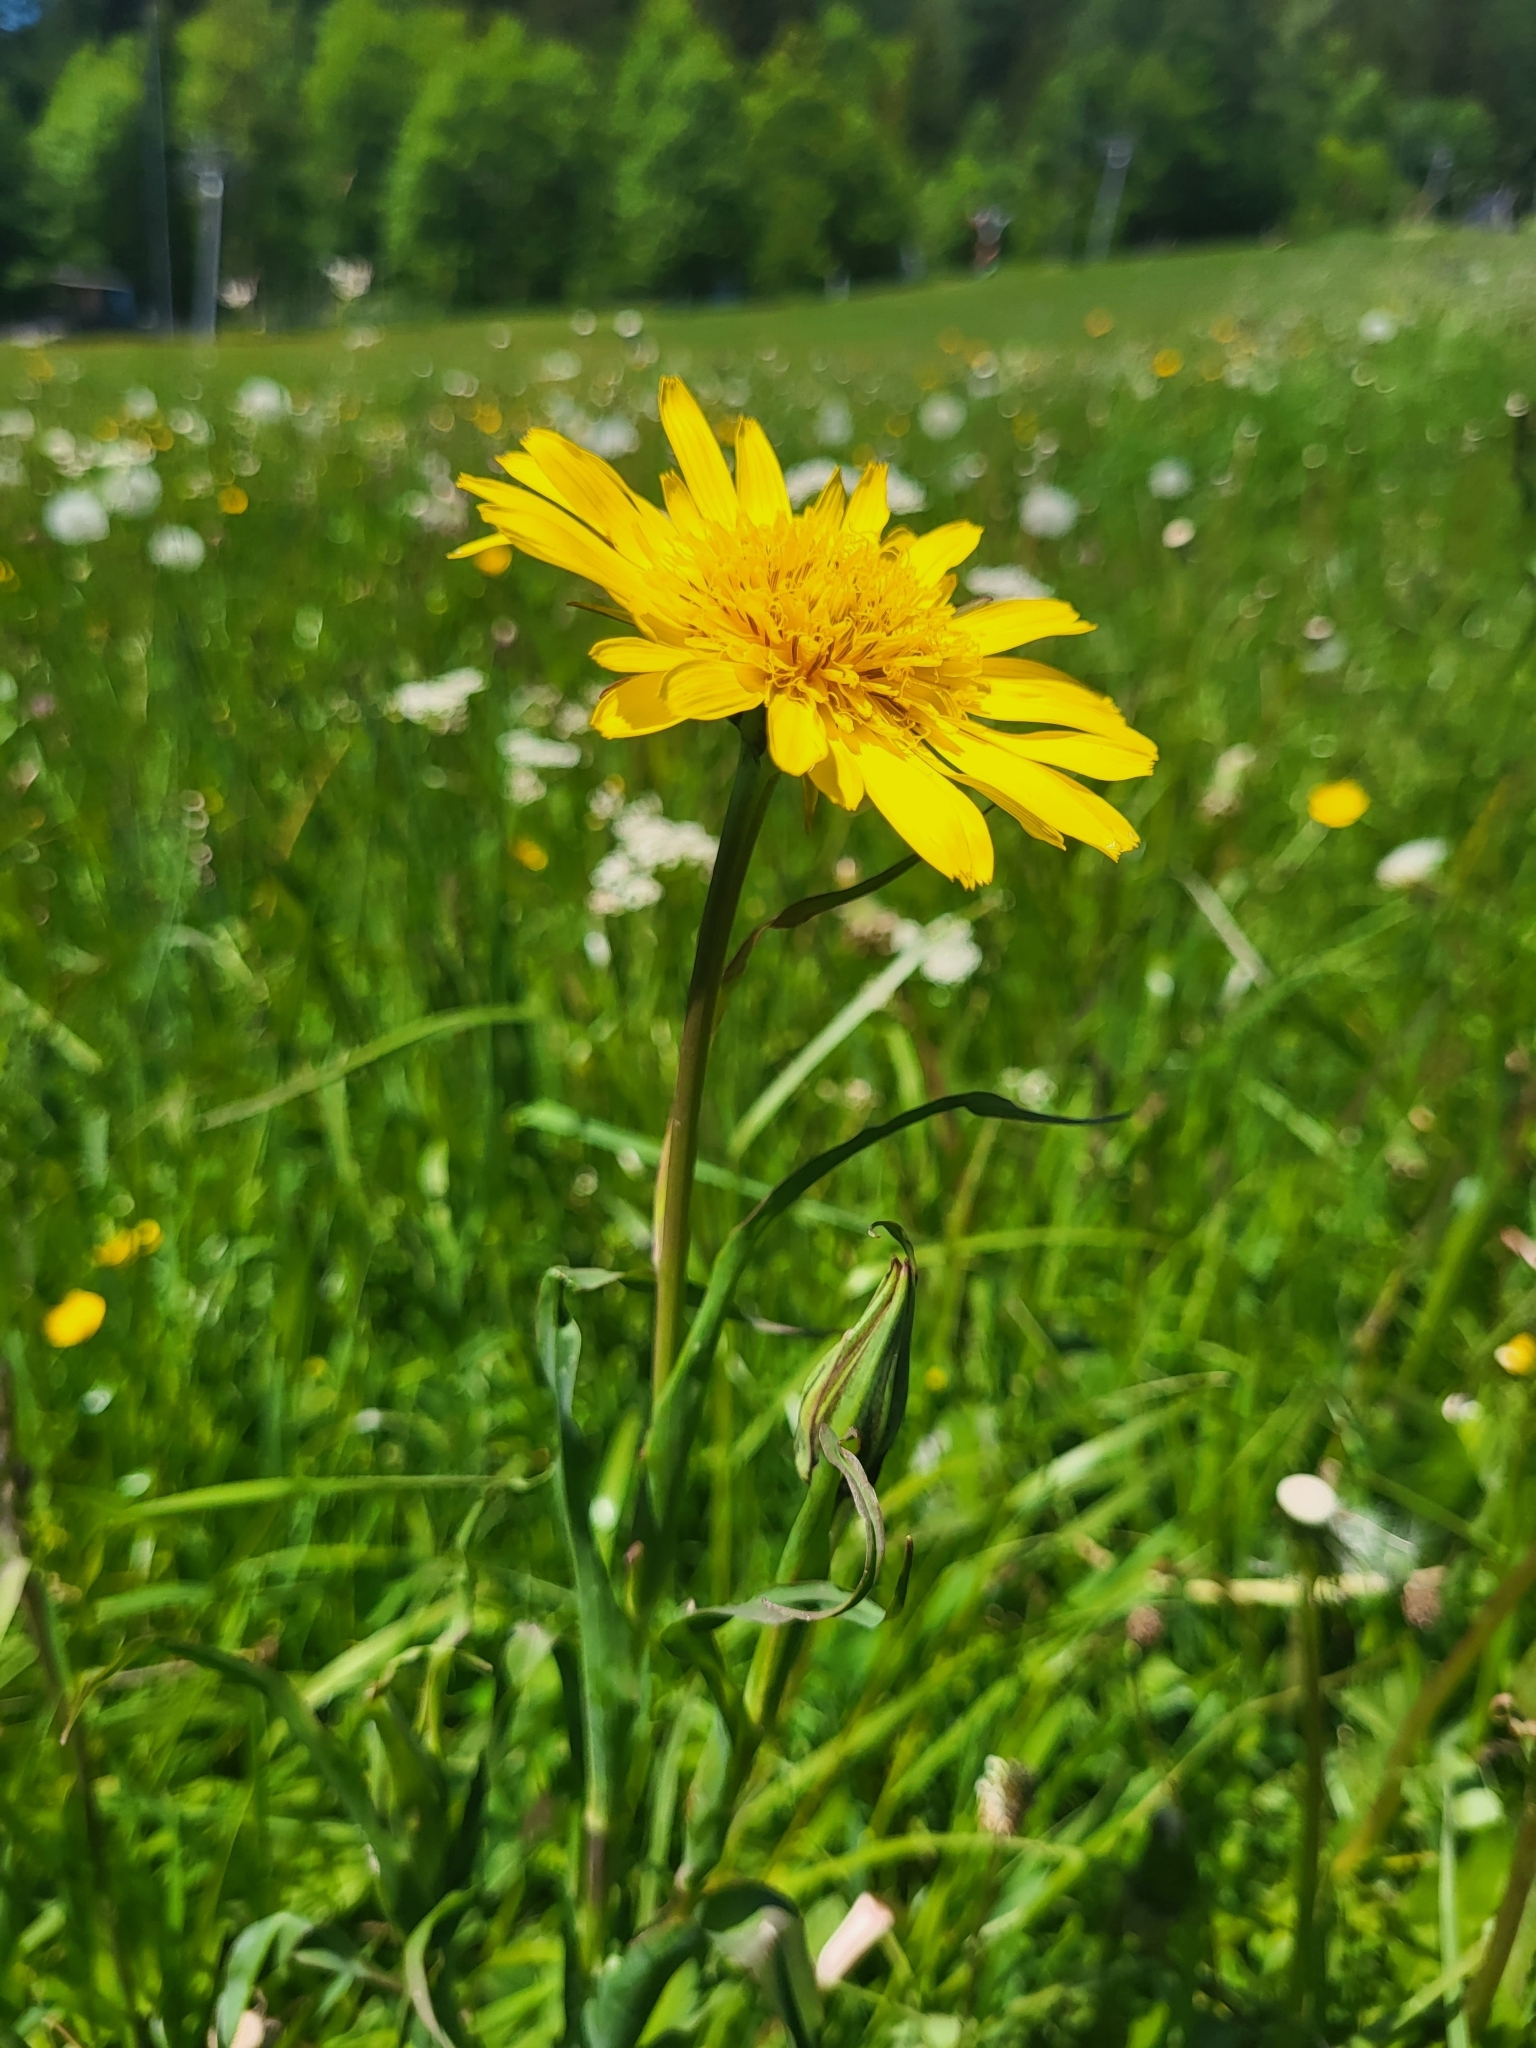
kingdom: Plantae
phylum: Tracheophyta
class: Magnoliopsida
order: Asterales
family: Asteraceae
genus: Tragopogon
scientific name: Tragopogon orientalis
